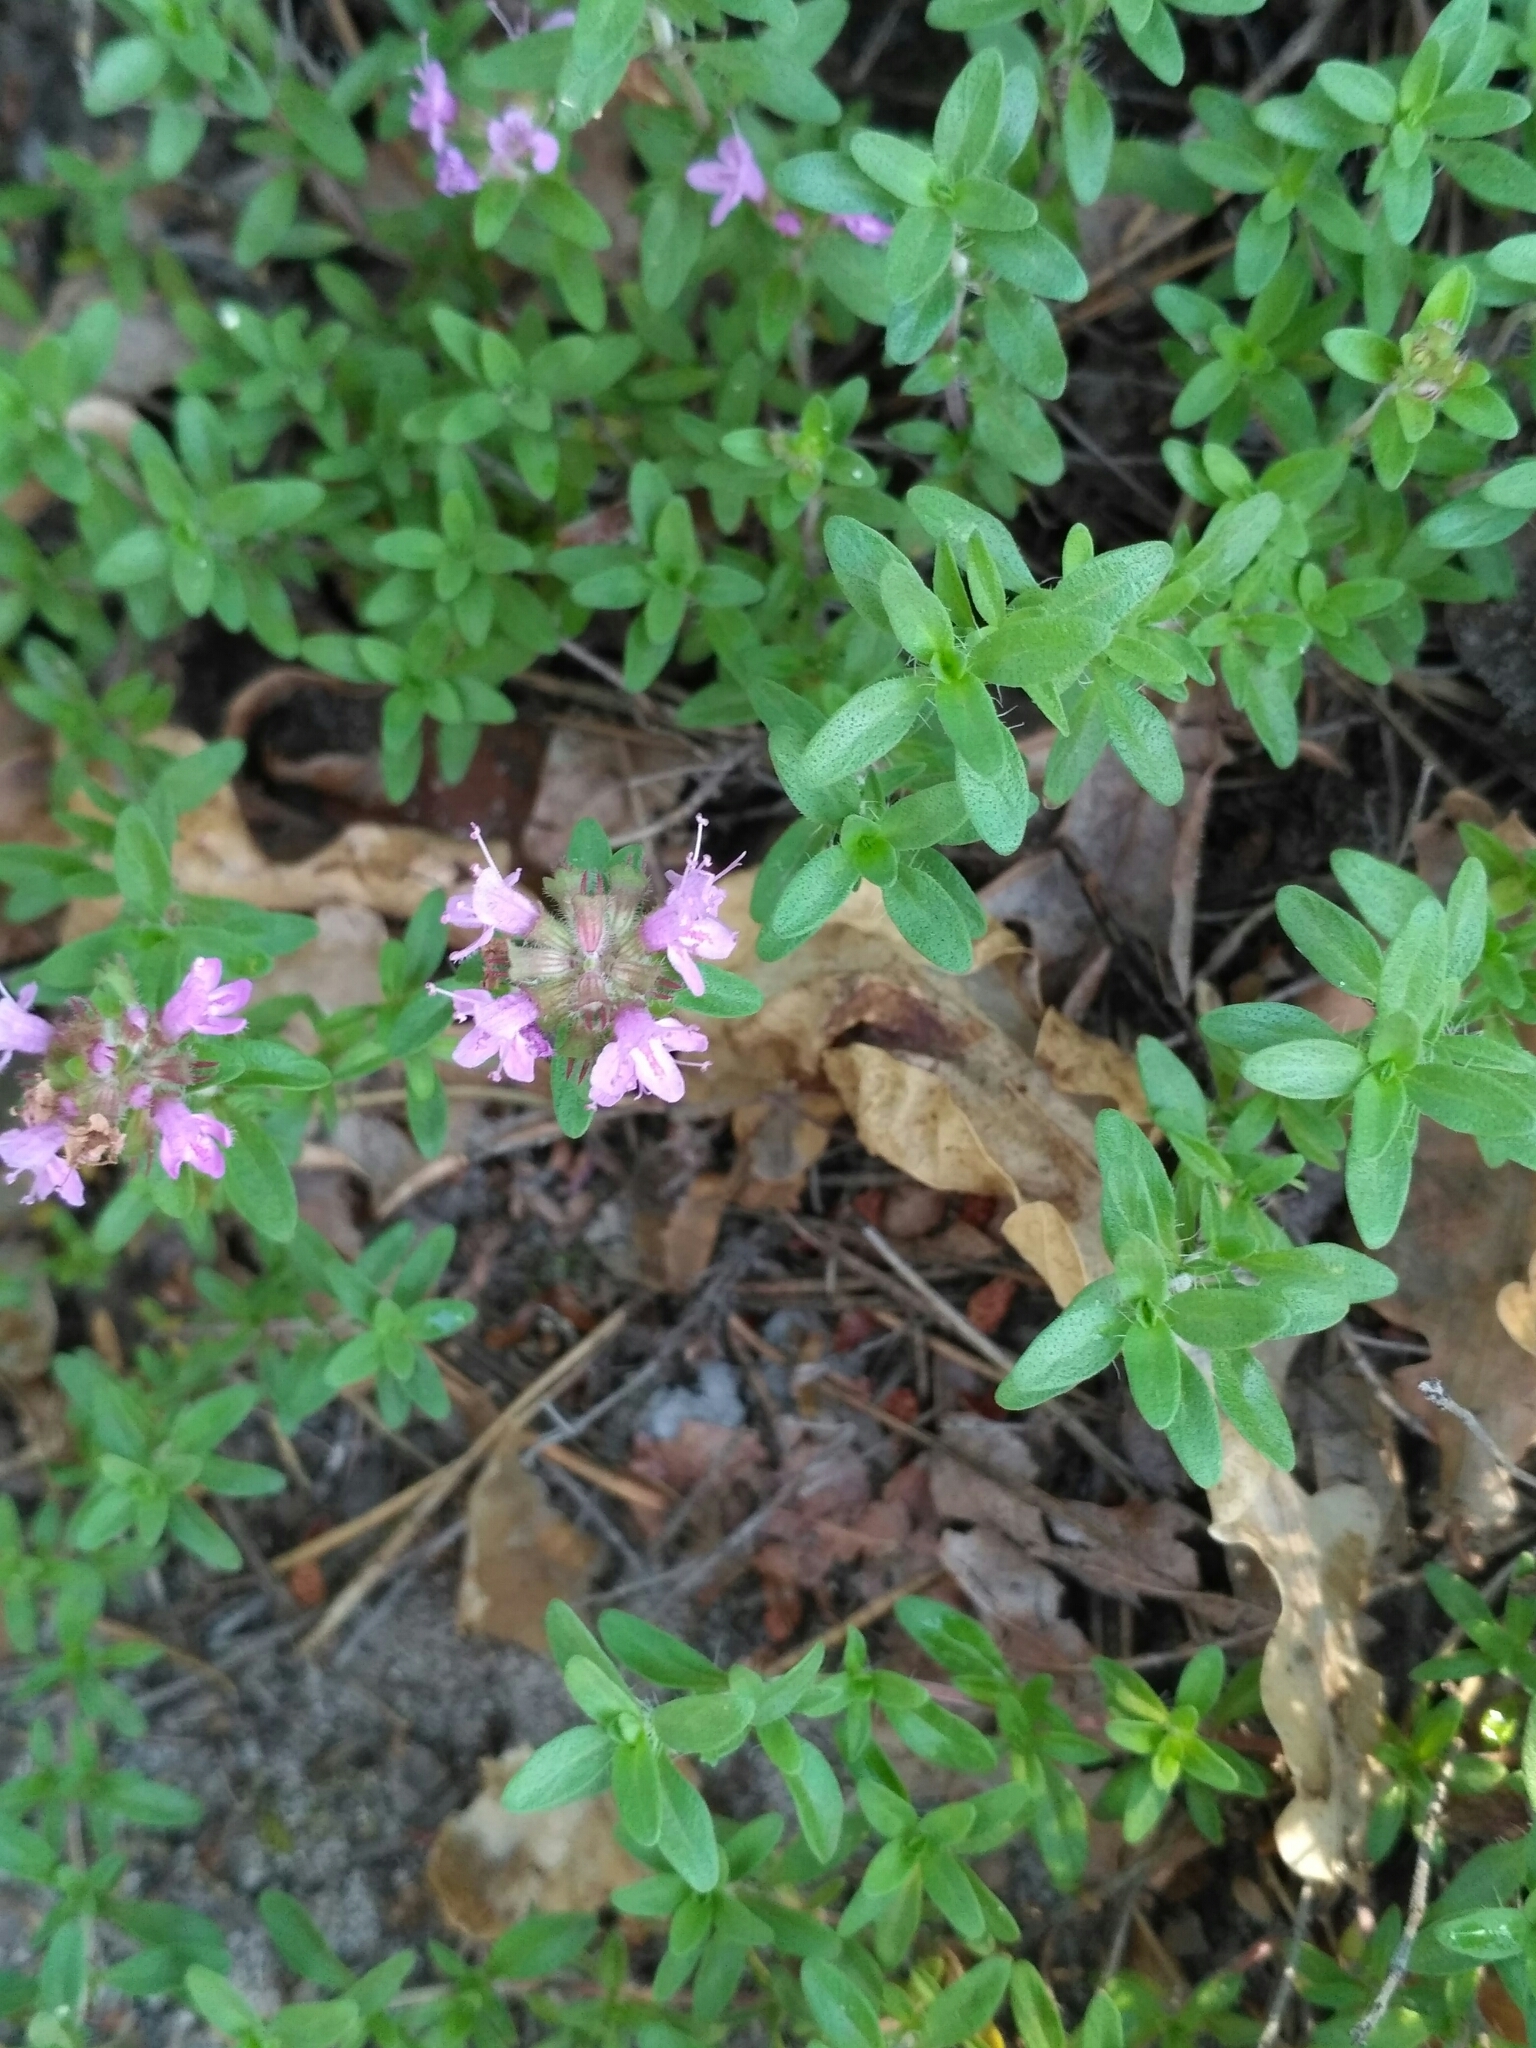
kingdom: Plantae
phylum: Tracheophyta
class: Magnoliopsida
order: Lamiales
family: Lamiaceae
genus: Thymus
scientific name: Thymus serpyllum
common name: Breckland thyme
